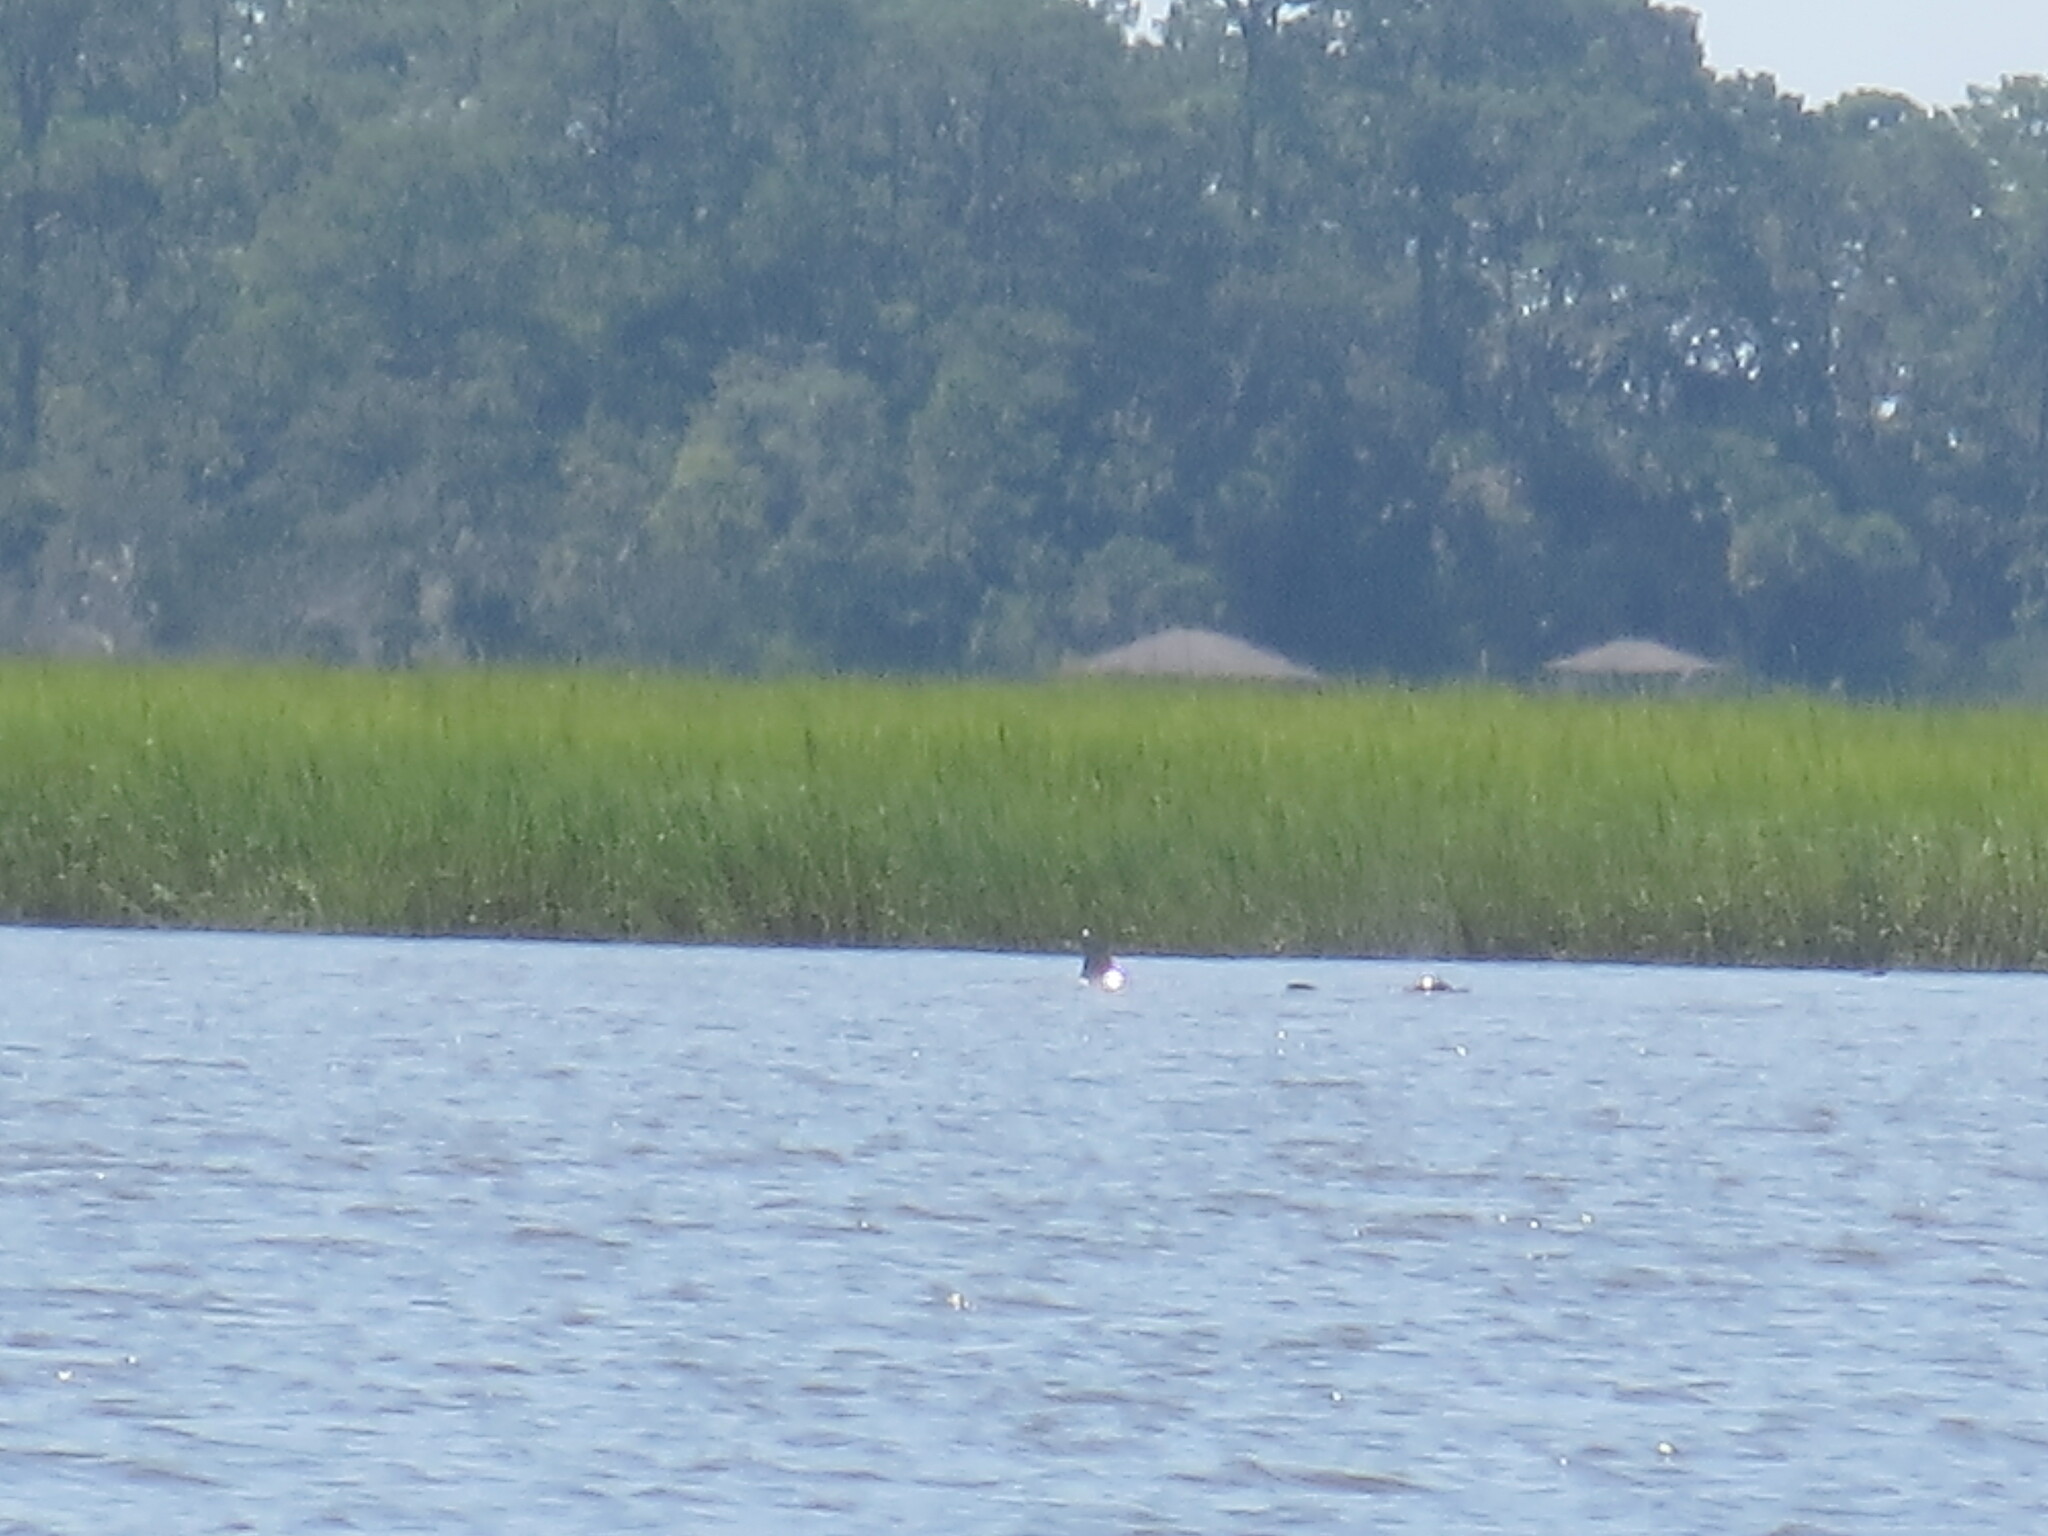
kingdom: Animalia
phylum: Chordata
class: Mammalia
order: Cetacea
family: Delphinidae
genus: Tursiops
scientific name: Tursiops truncatus
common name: Bottlenose dolphin
